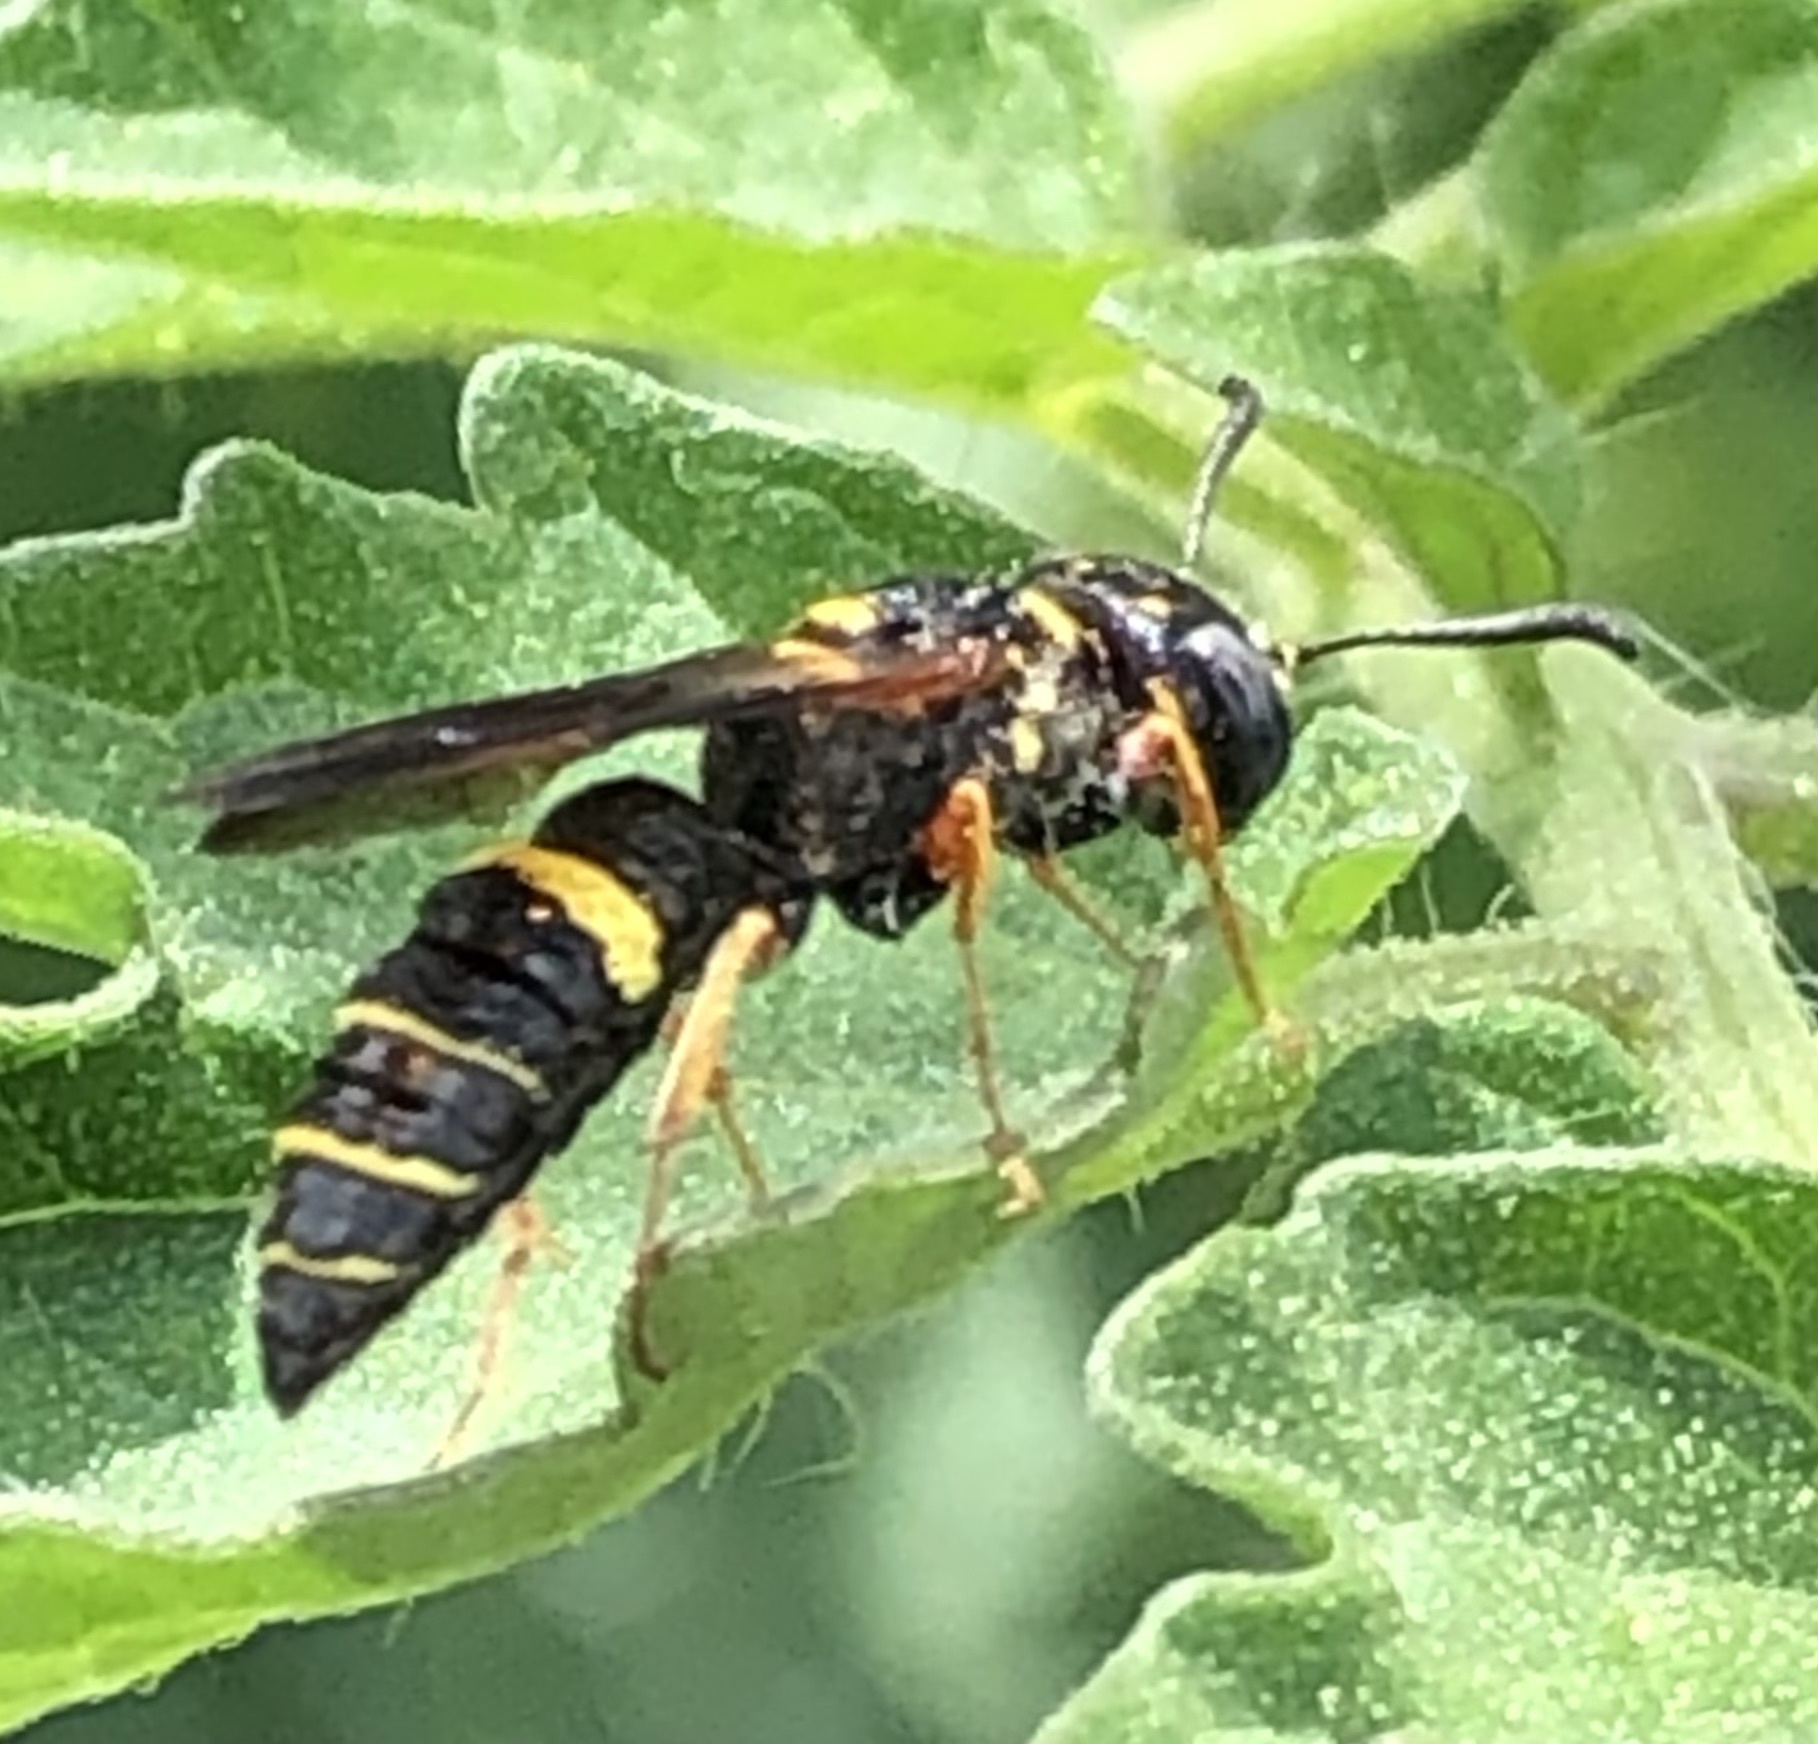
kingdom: Animalia
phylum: Arthropoda
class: Insecta
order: Hymenoptera
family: Crabronidae
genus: Philanthus
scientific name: Philanthus gibbosus
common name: Humped beewolf
